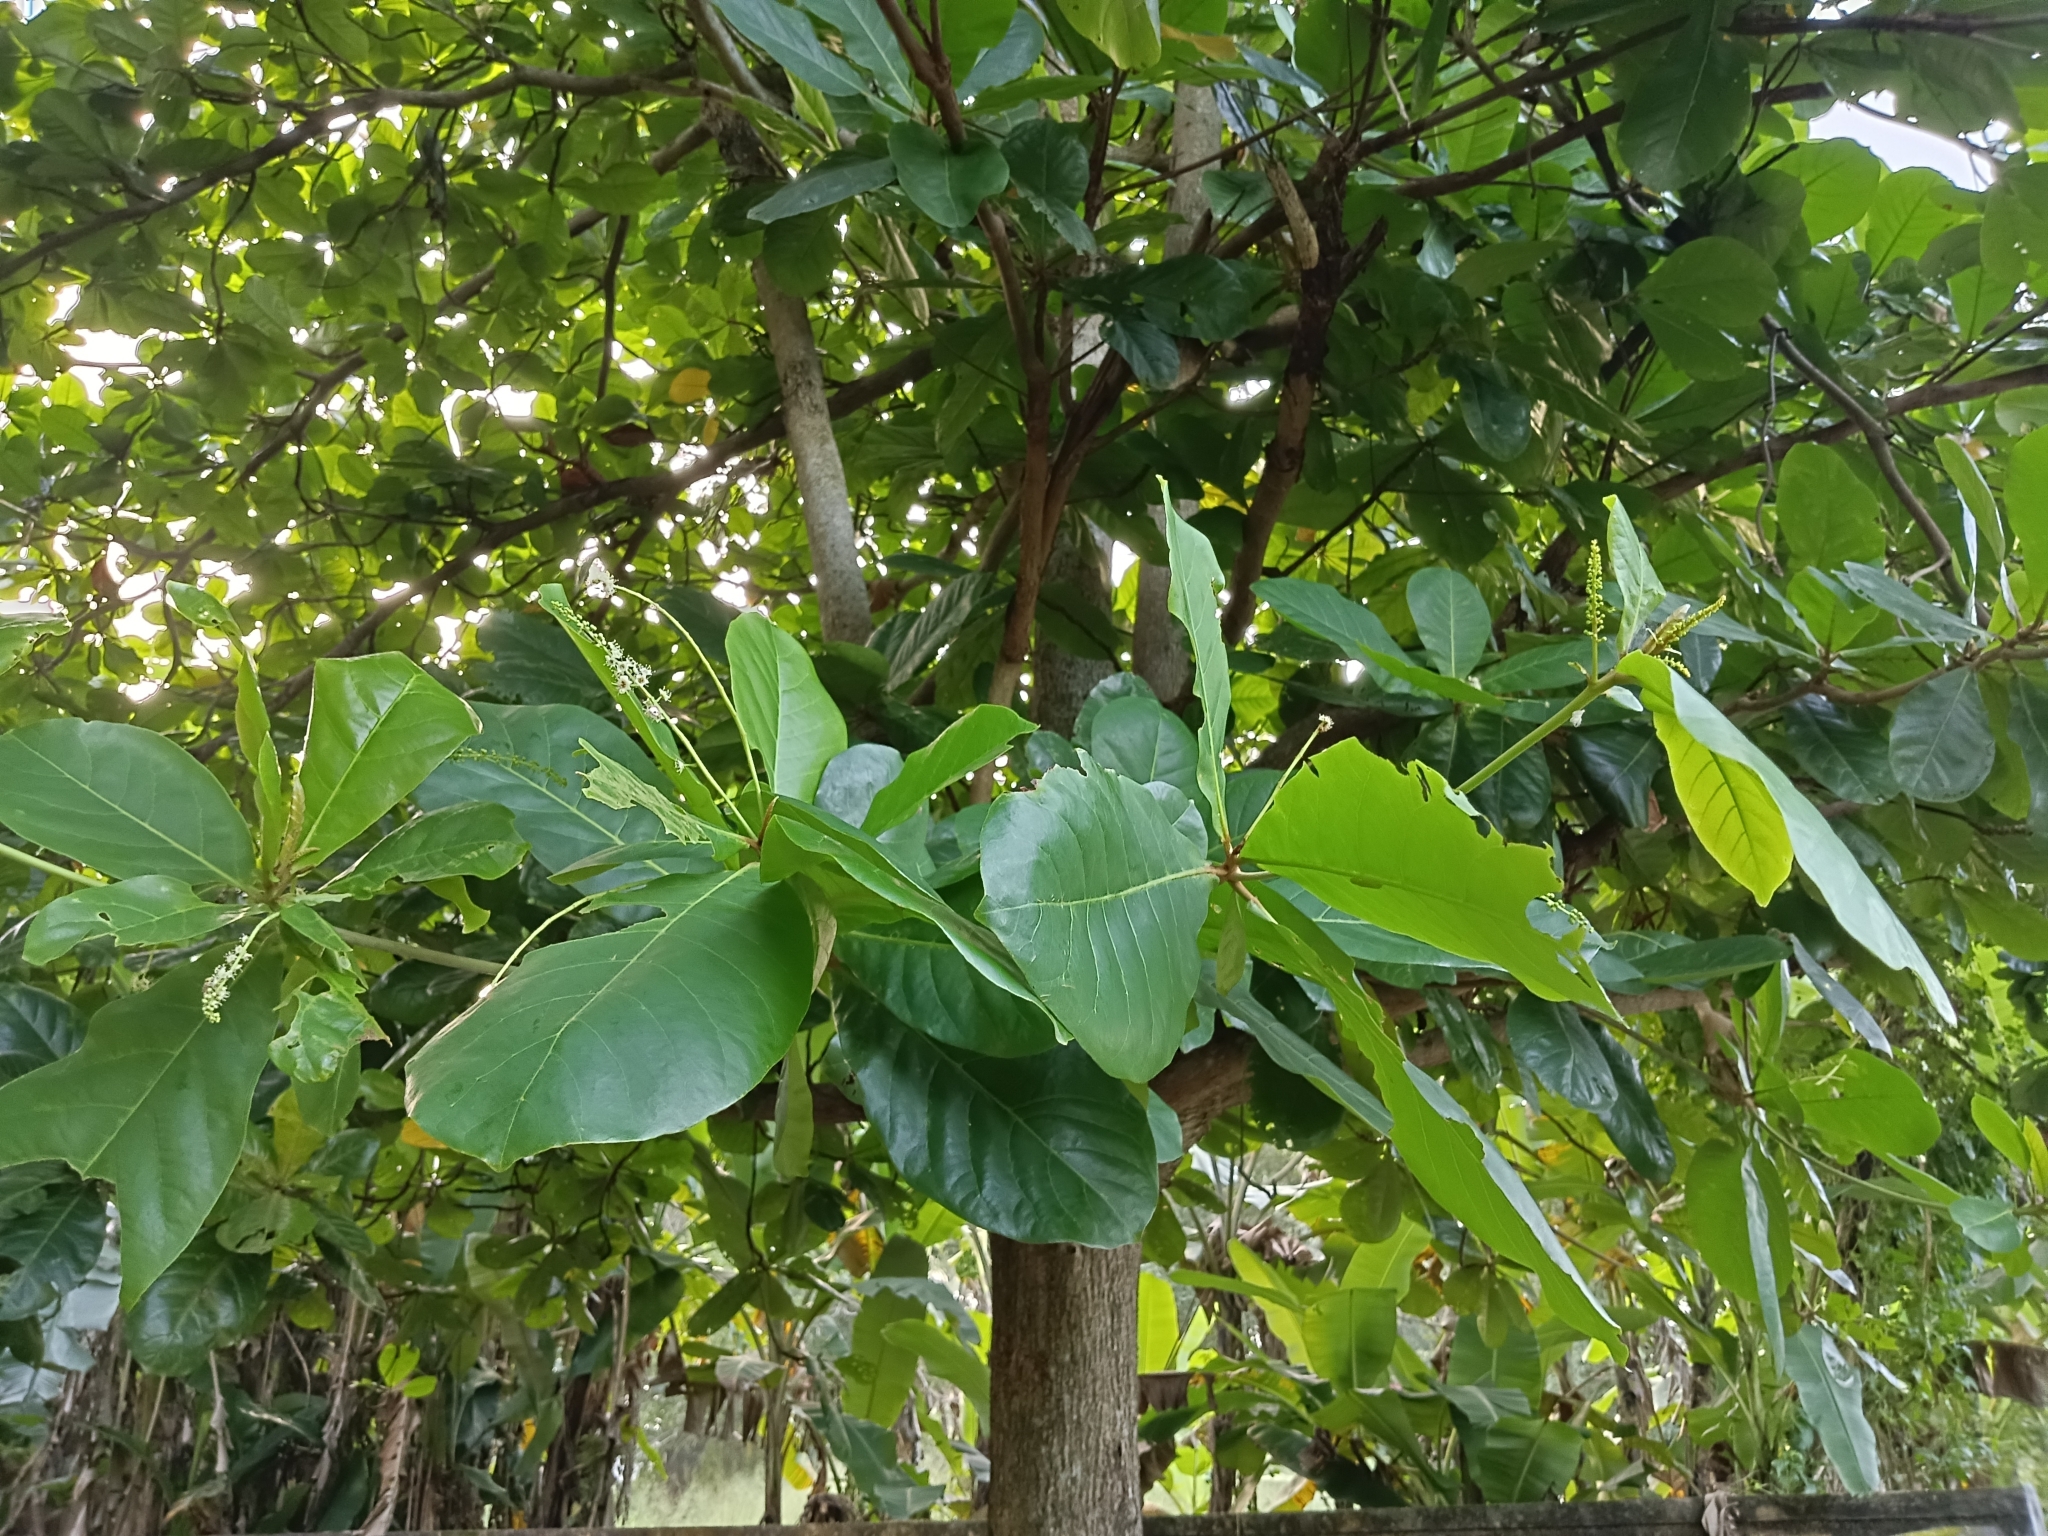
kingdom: Plantae
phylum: Tracheophyta
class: Magnoliopsida
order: Myrtales
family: Combretaceae
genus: Terminalia
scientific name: Terminalia catappa
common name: Tropical almond
